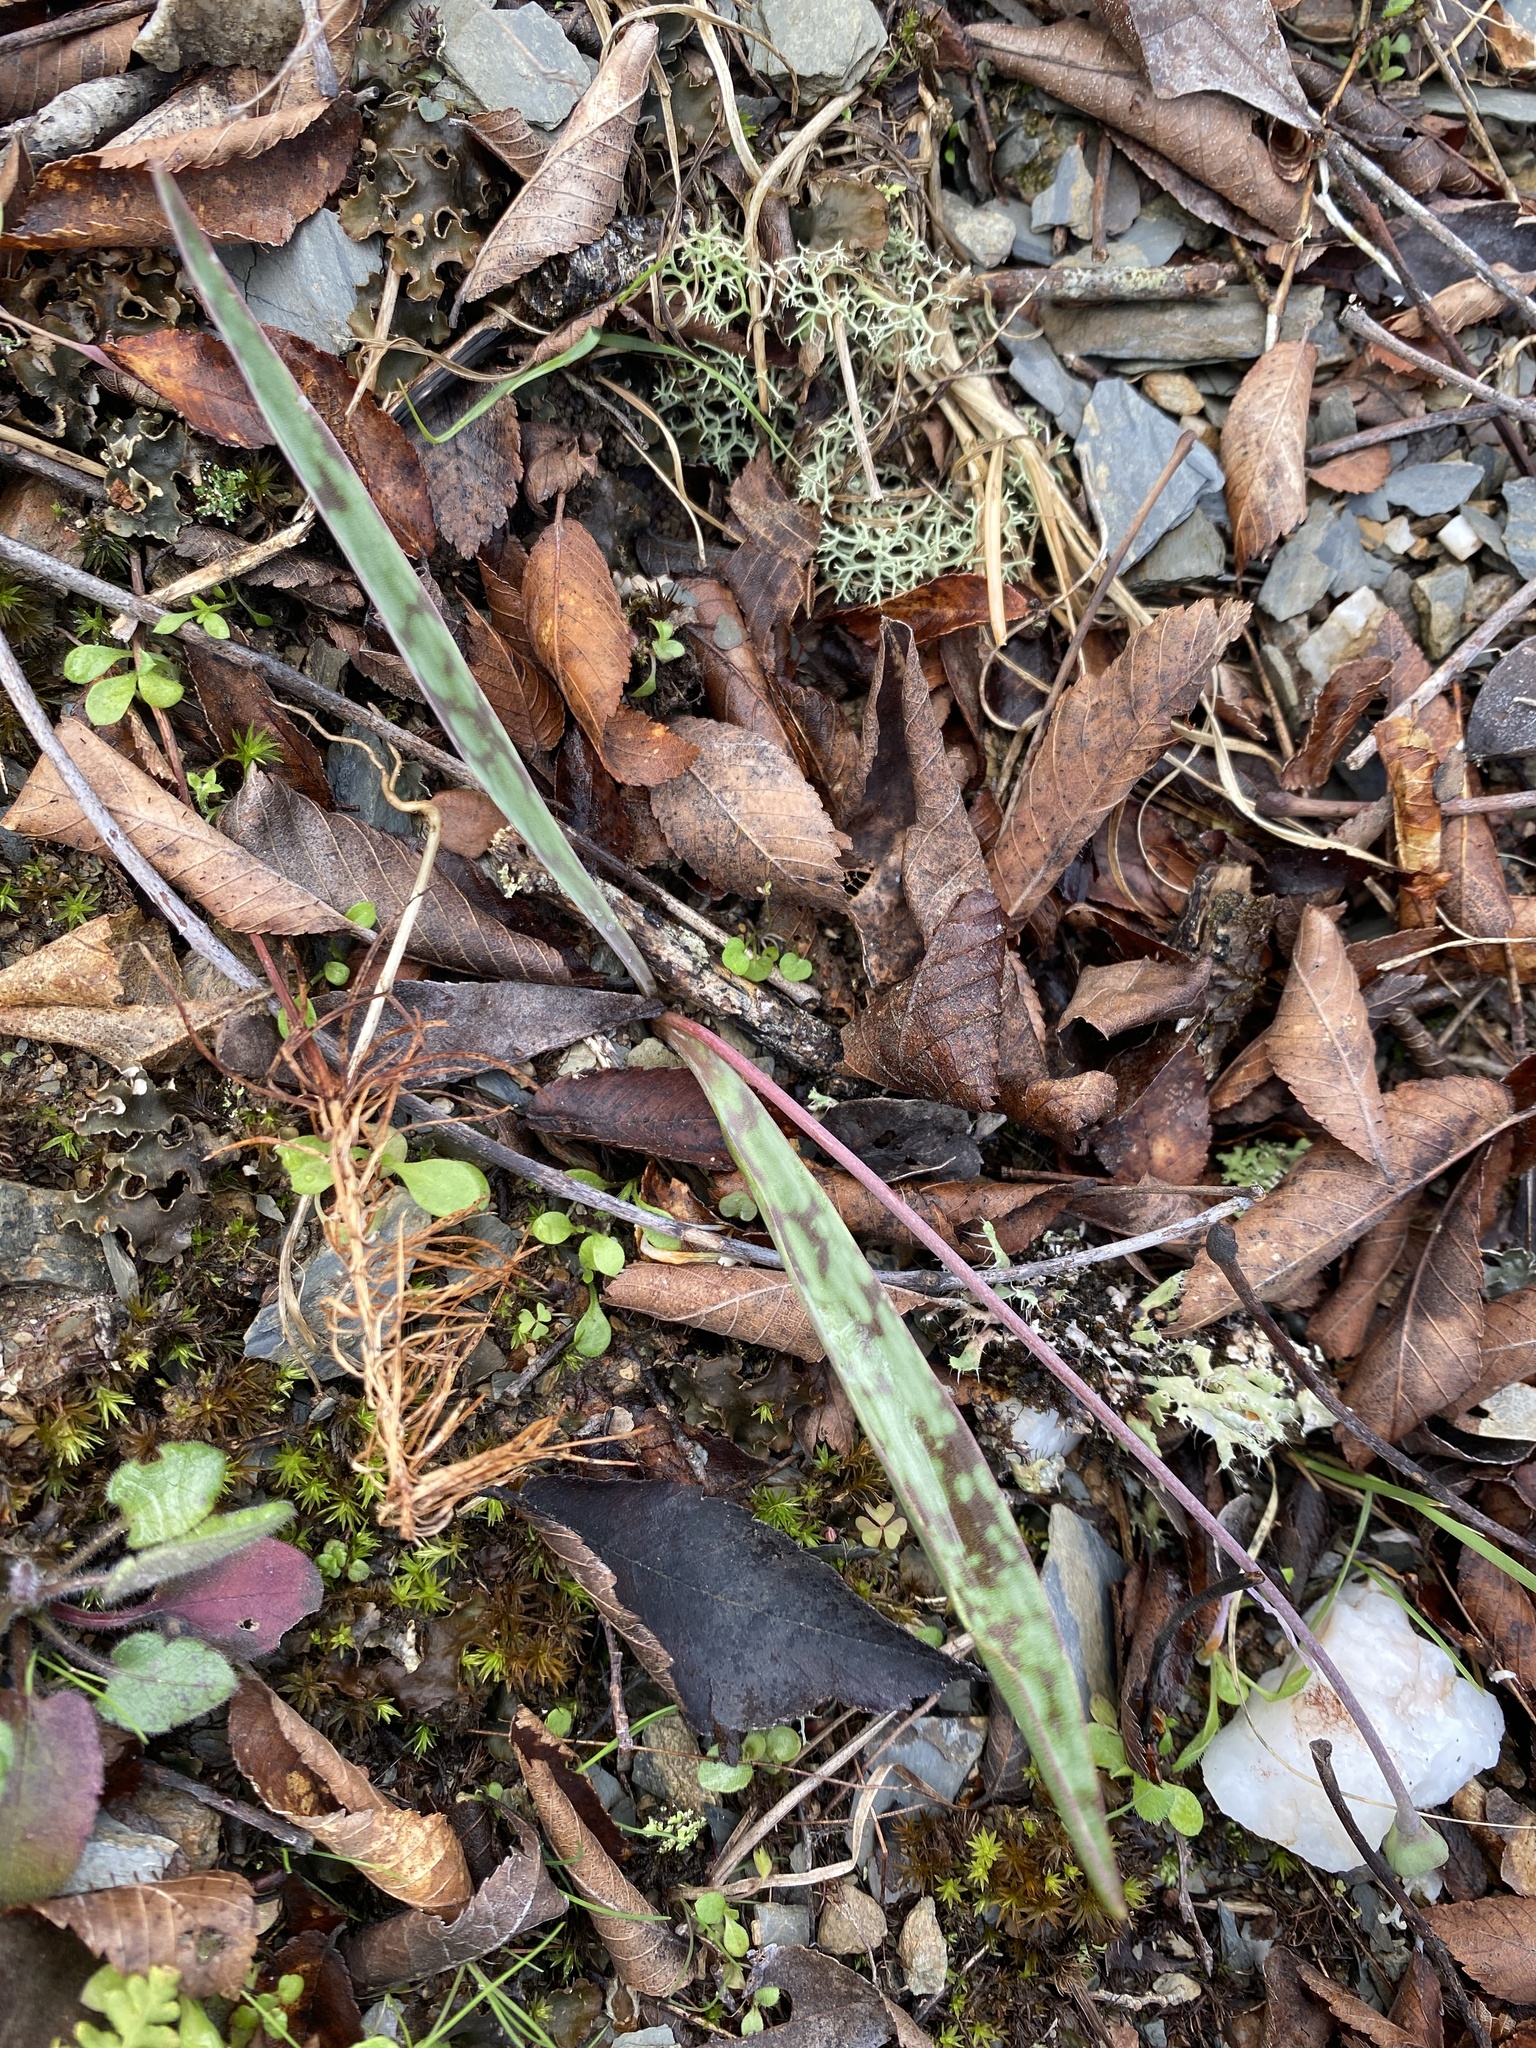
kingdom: Plantae
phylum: Tracheophyta
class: Liliopsida
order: Liliales
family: Liliaceae
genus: Erythronium
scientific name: Erythronium mesochoreum
